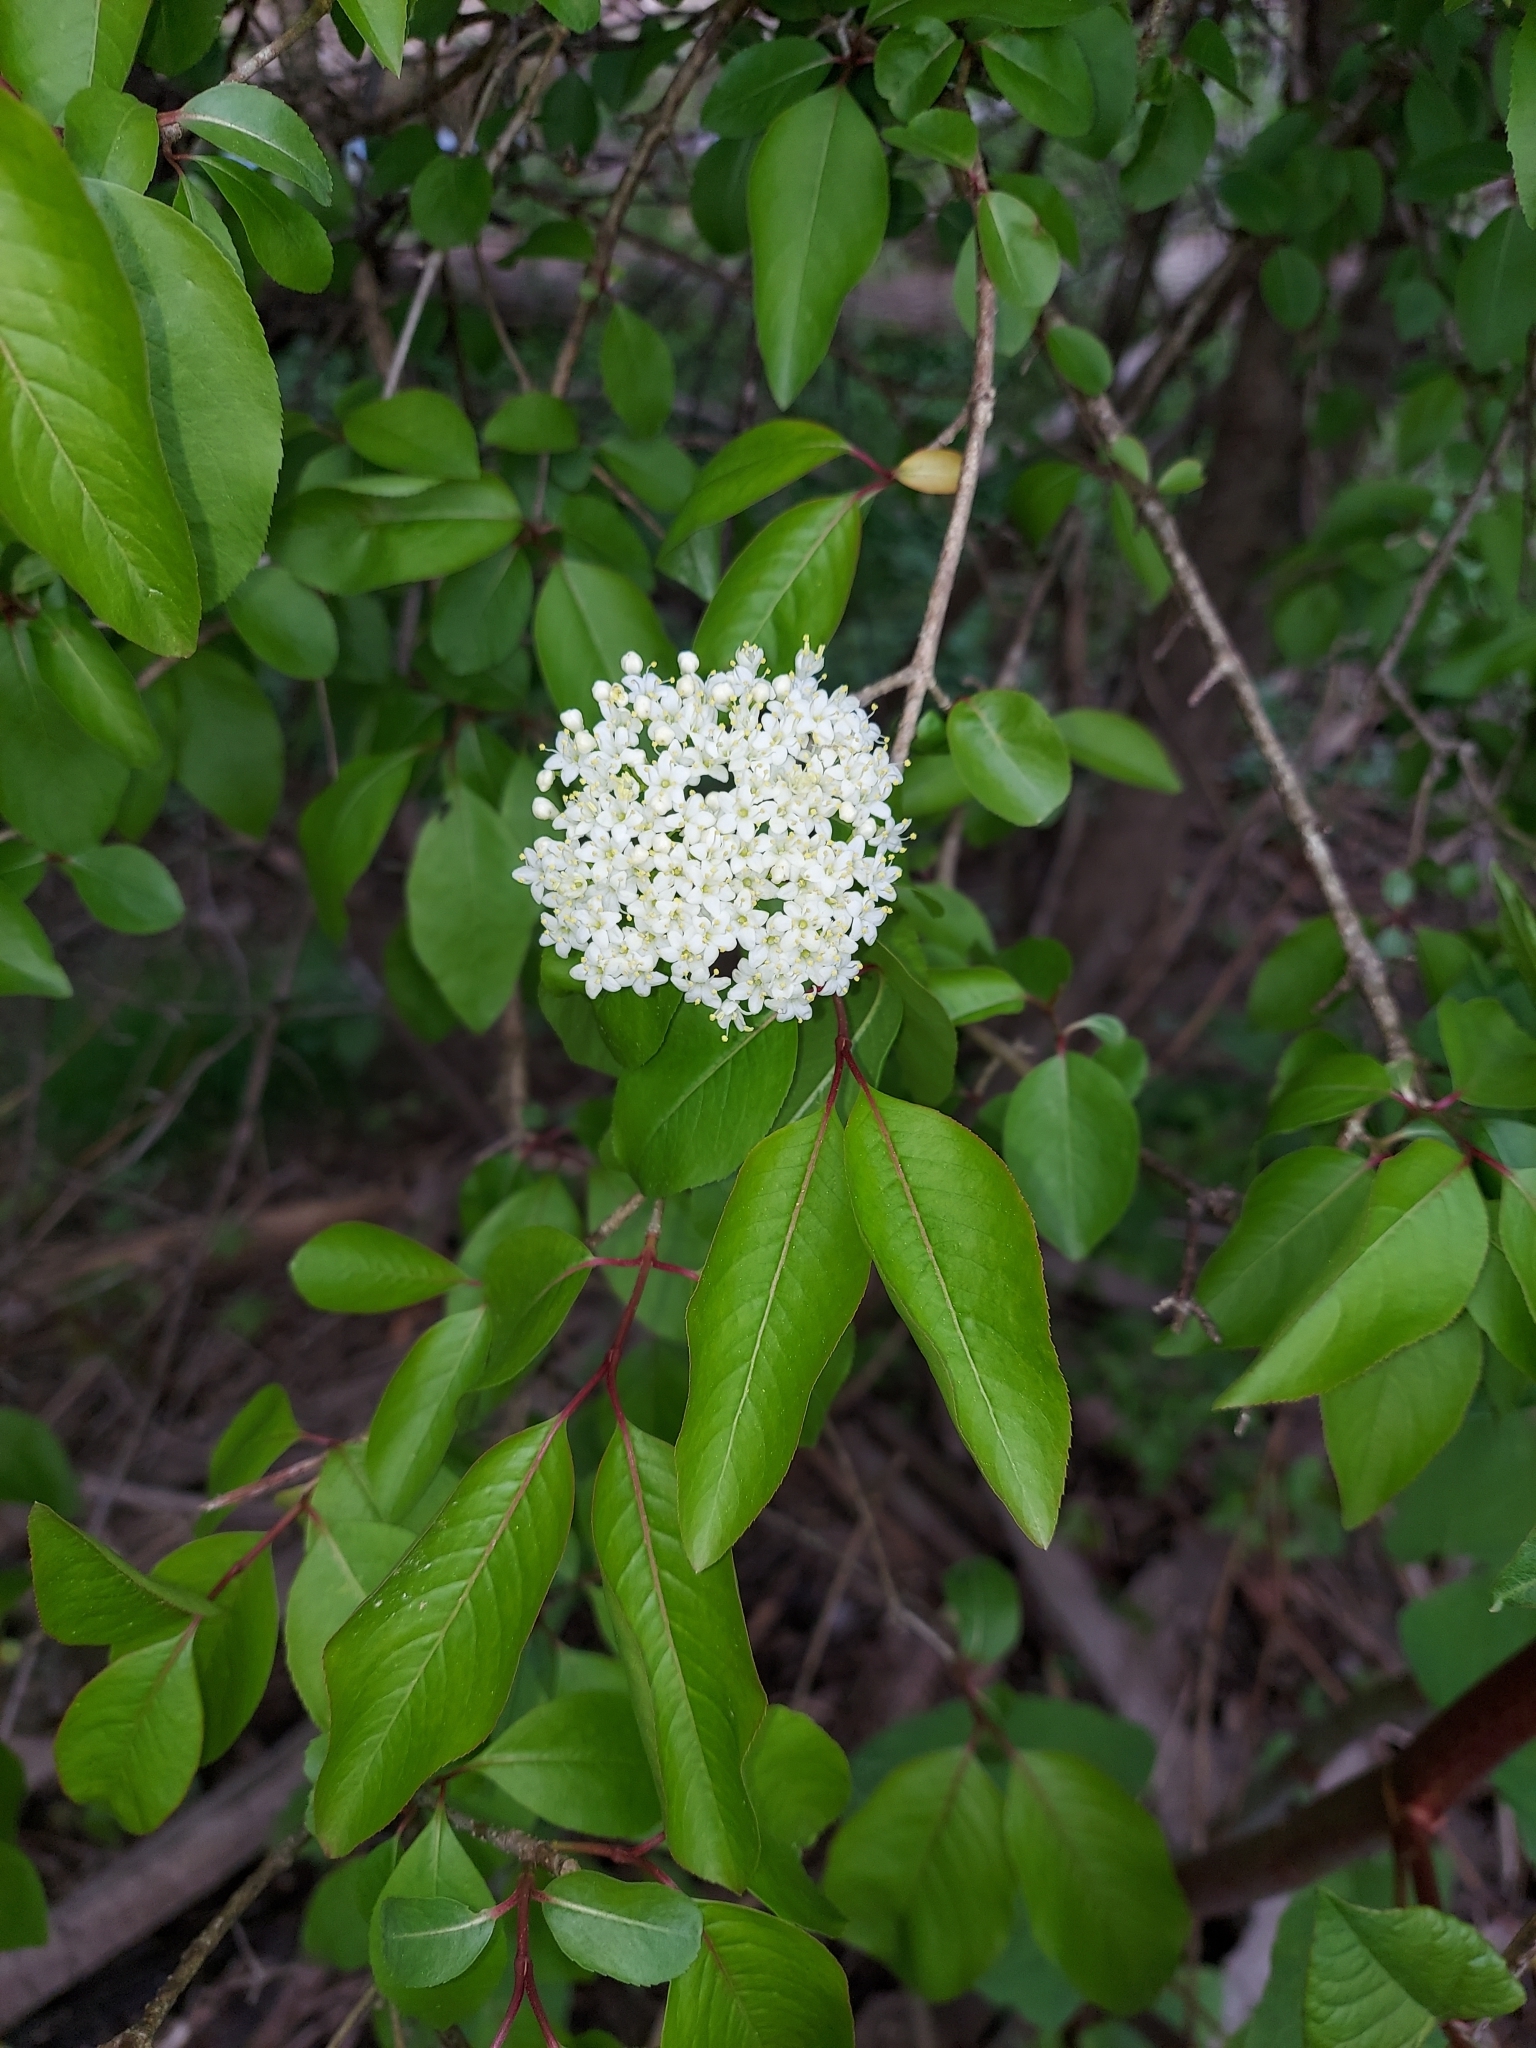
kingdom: Plantae
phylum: Tracheophyta
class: Magnoliopsida
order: Dipsacales
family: Viburnaceae
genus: Viburnum
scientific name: Viburnum prunifolium
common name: Black haw
